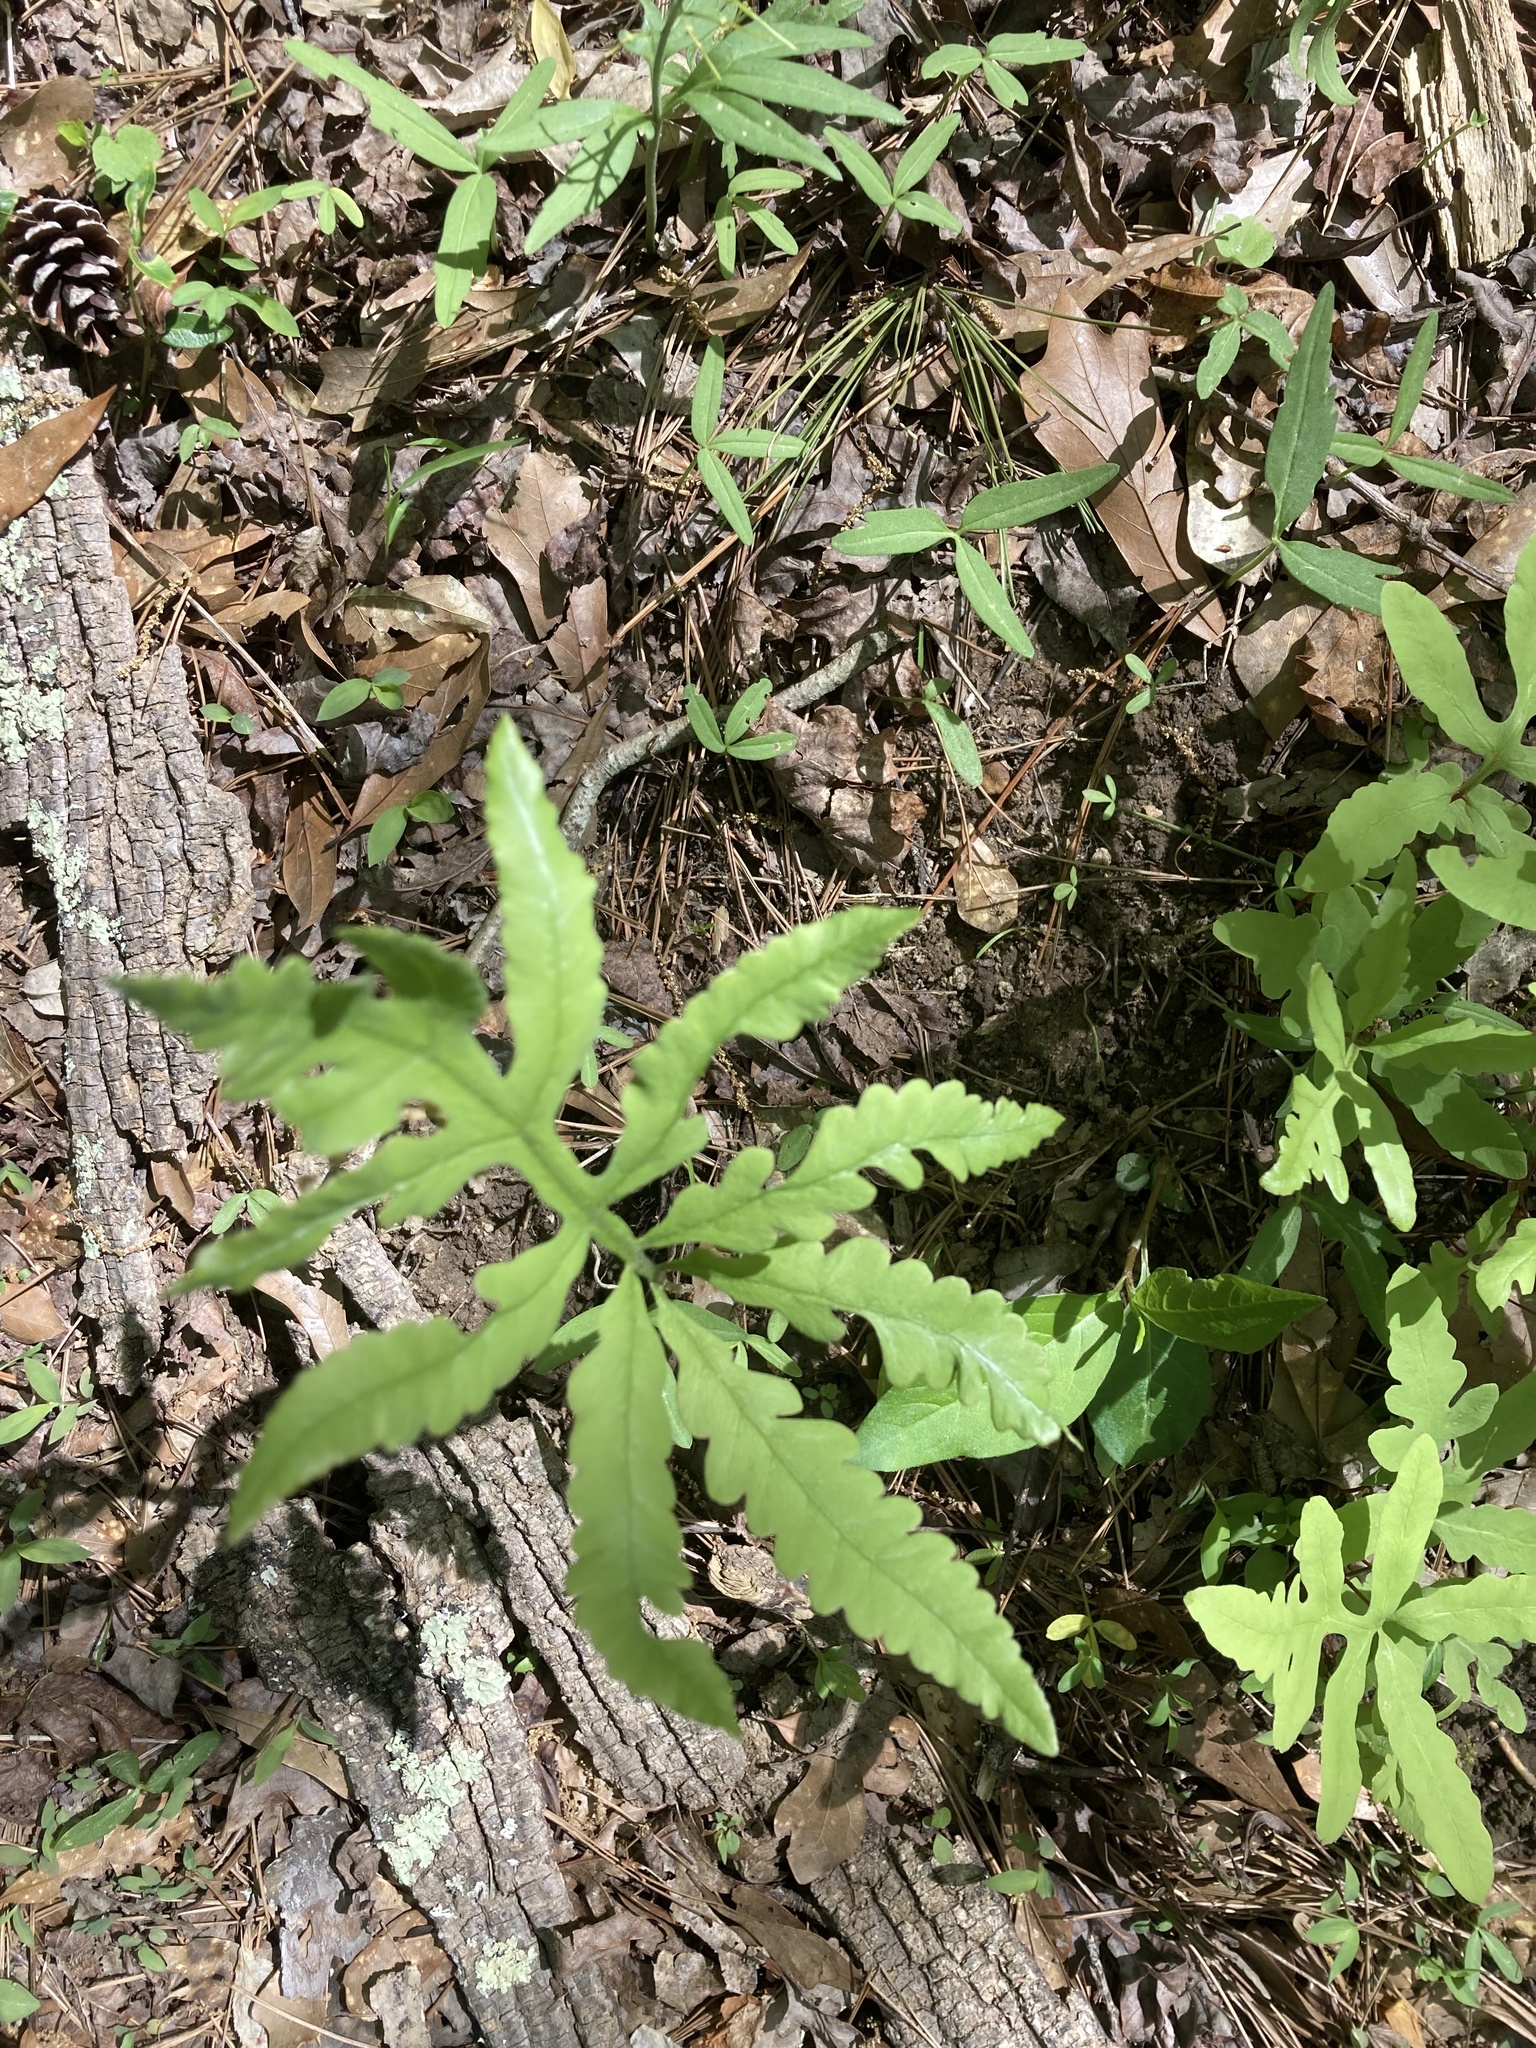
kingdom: Plantae
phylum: Tracheophyta
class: Polypodiopsida
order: Polypodiales
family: Onocleaceae
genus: Onoclea
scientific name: Onoclea sensibilis
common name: Sensitive fern
